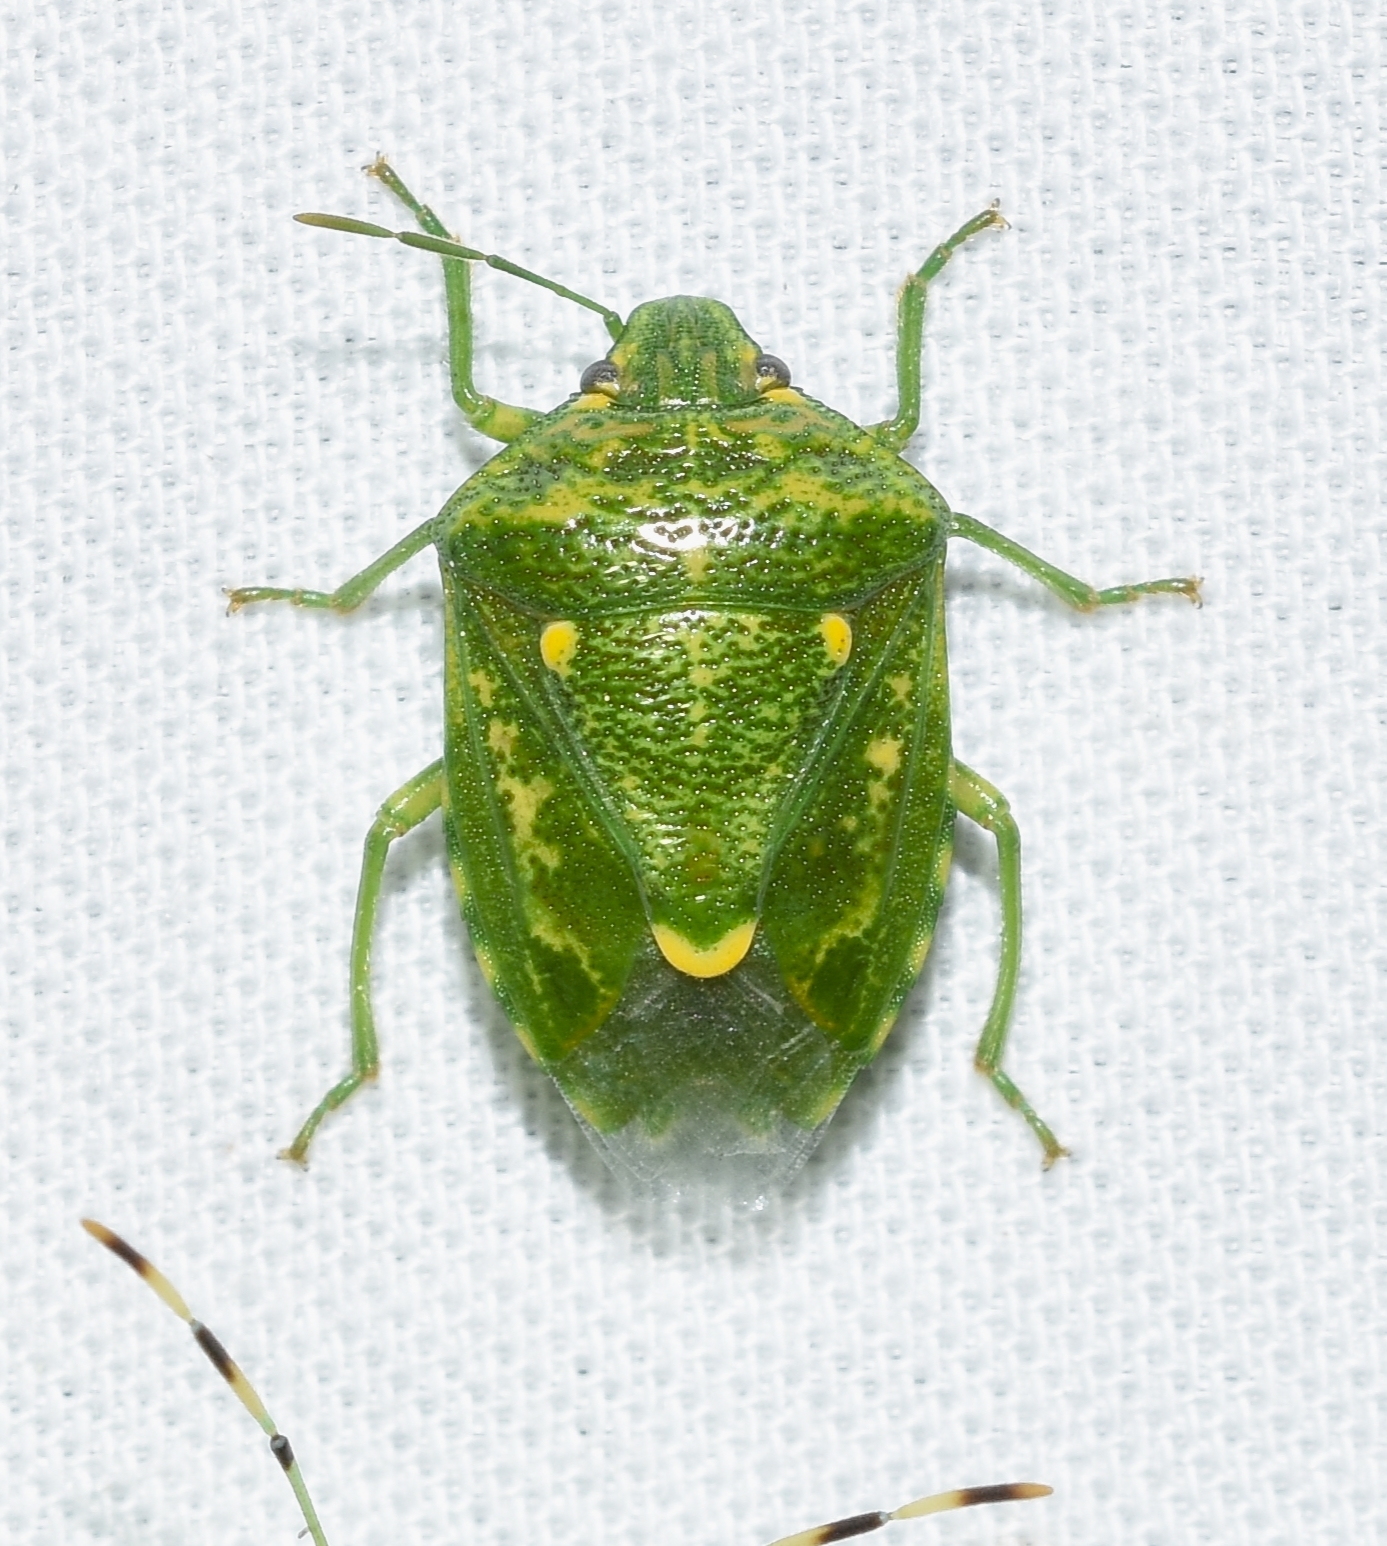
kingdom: Animalia
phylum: Arthropoda
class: Insecta
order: Hemiptera
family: Pentatomidae
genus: Banasa
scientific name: Banasa euchlora
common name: Cedar berry bug
